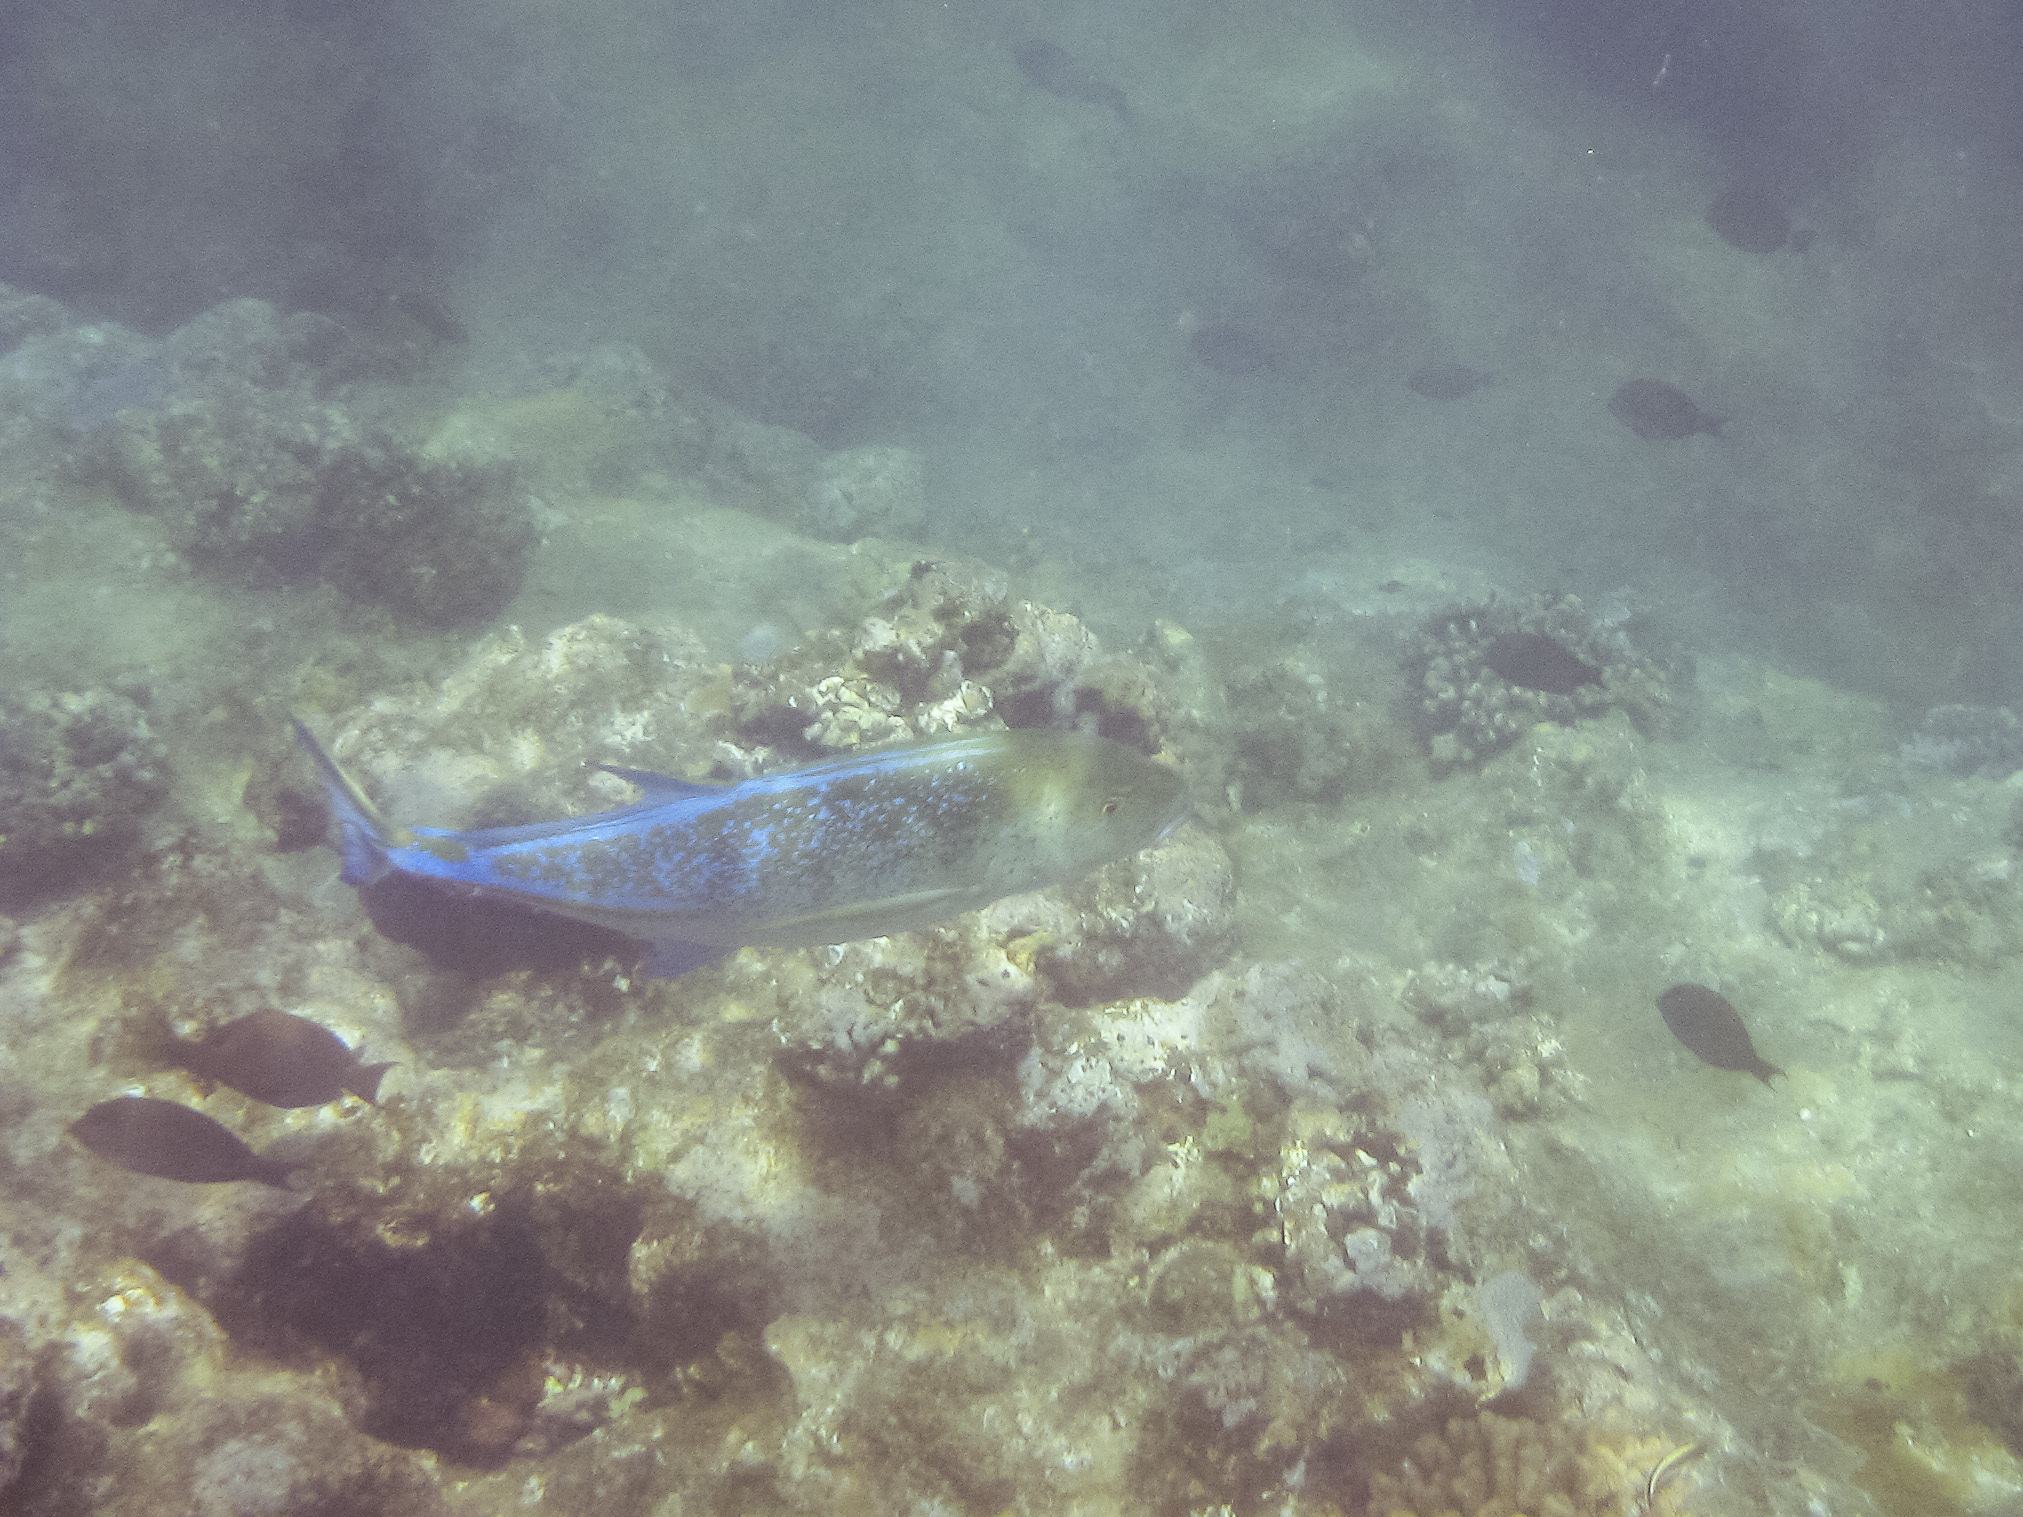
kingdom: Animalia
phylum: Chordata
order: Perciformes
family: Carangidae
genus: Caranx
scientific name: Caranx melampygus
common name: Bluefin trevally
